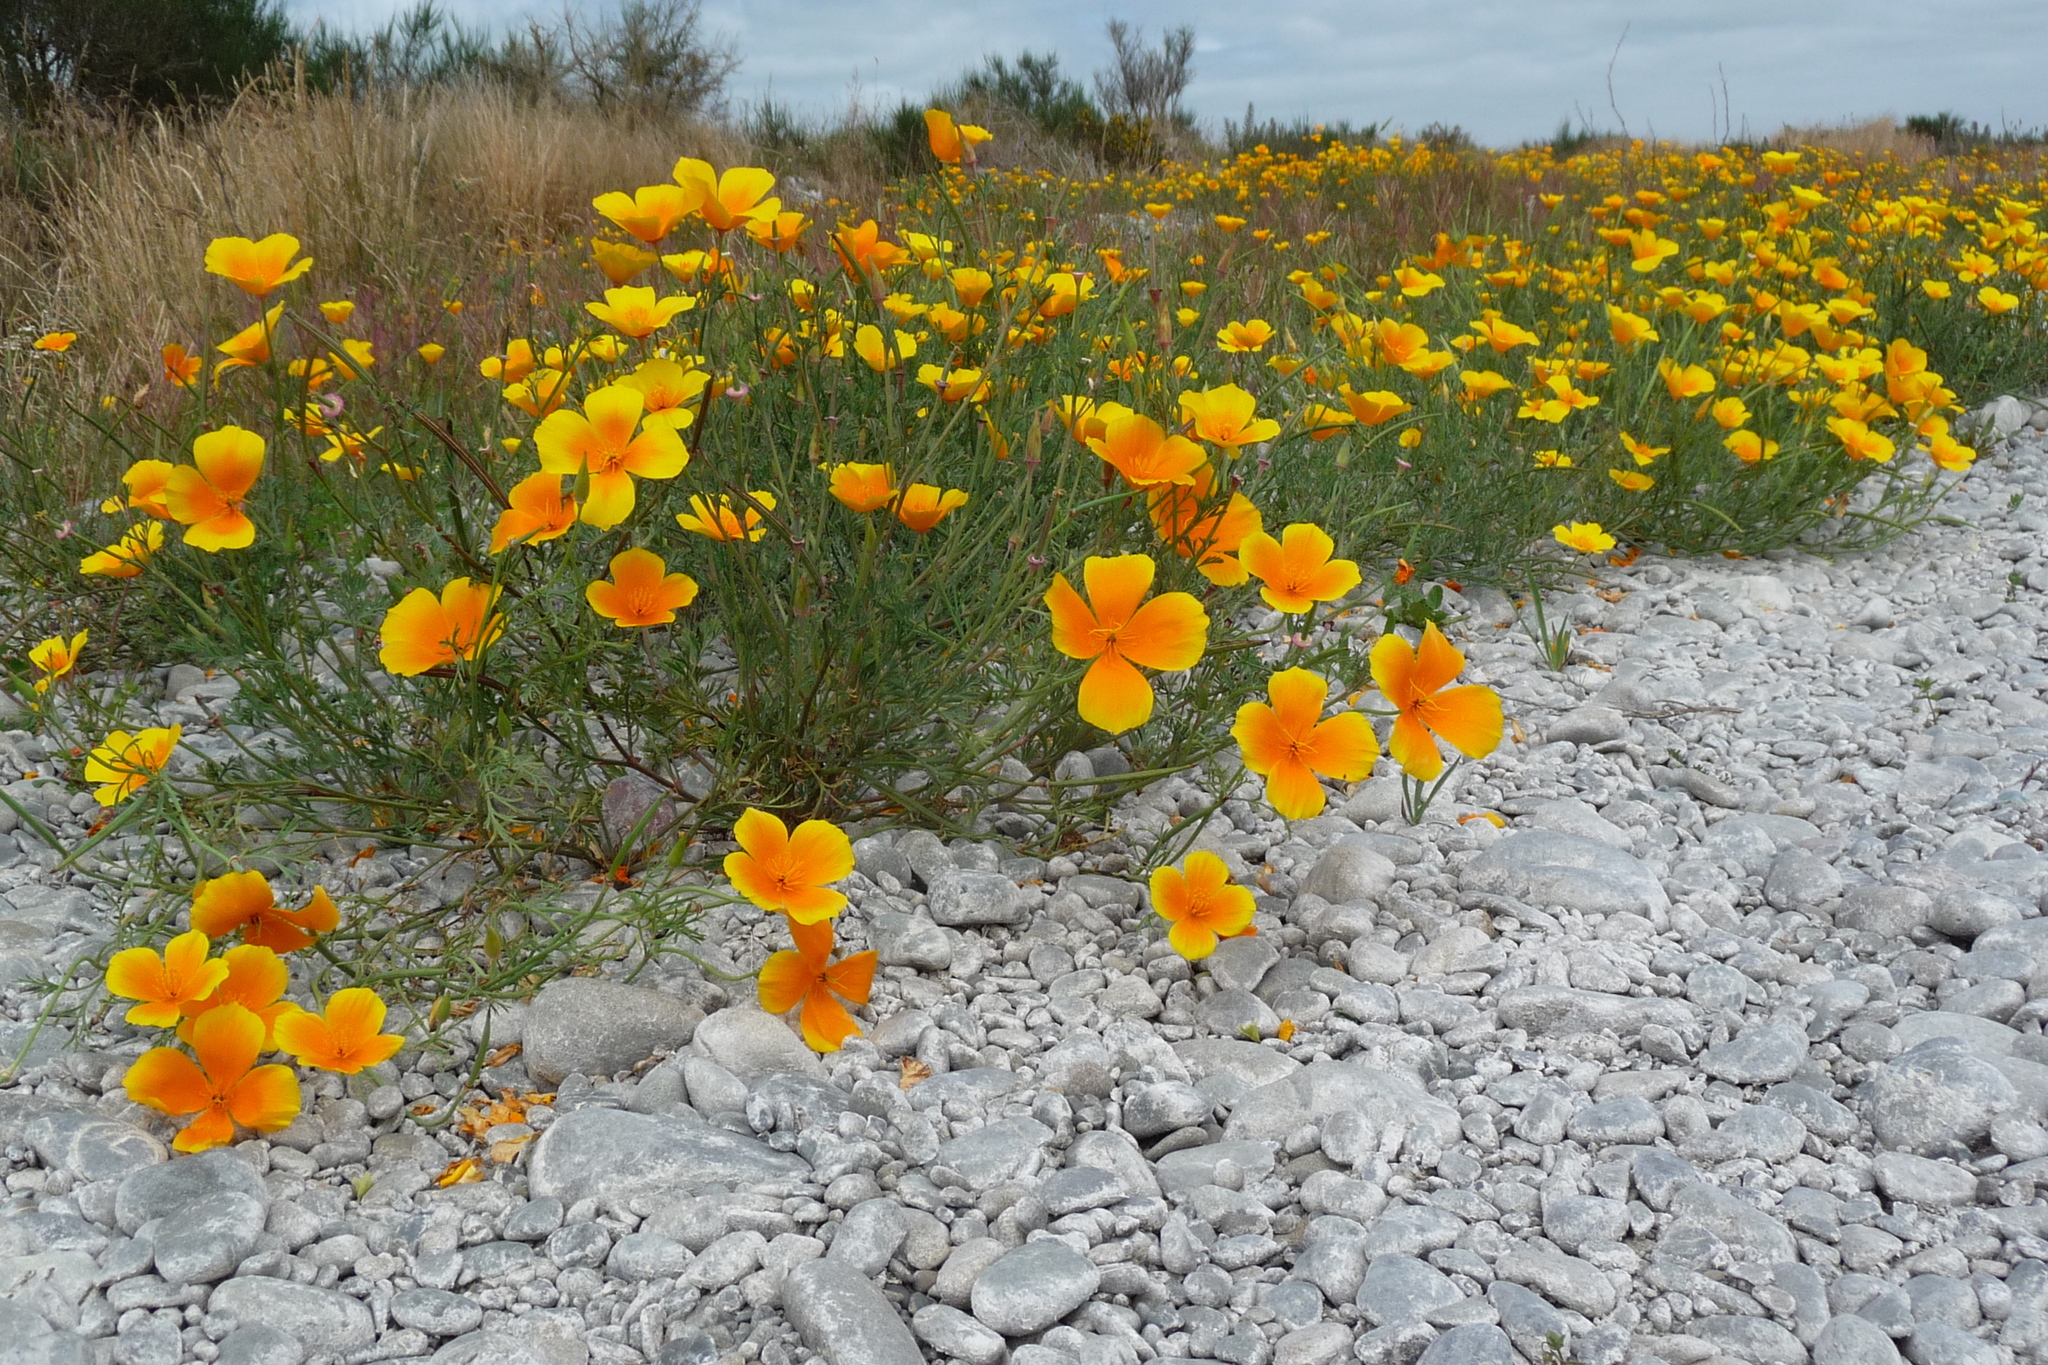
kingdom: Plantae
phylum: Tracheophyta
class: Magnoliopsida
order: Ranunculales
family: Papaveraceae
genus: Eschscholzia
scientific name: Eschscholzia californica
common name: California poppy
